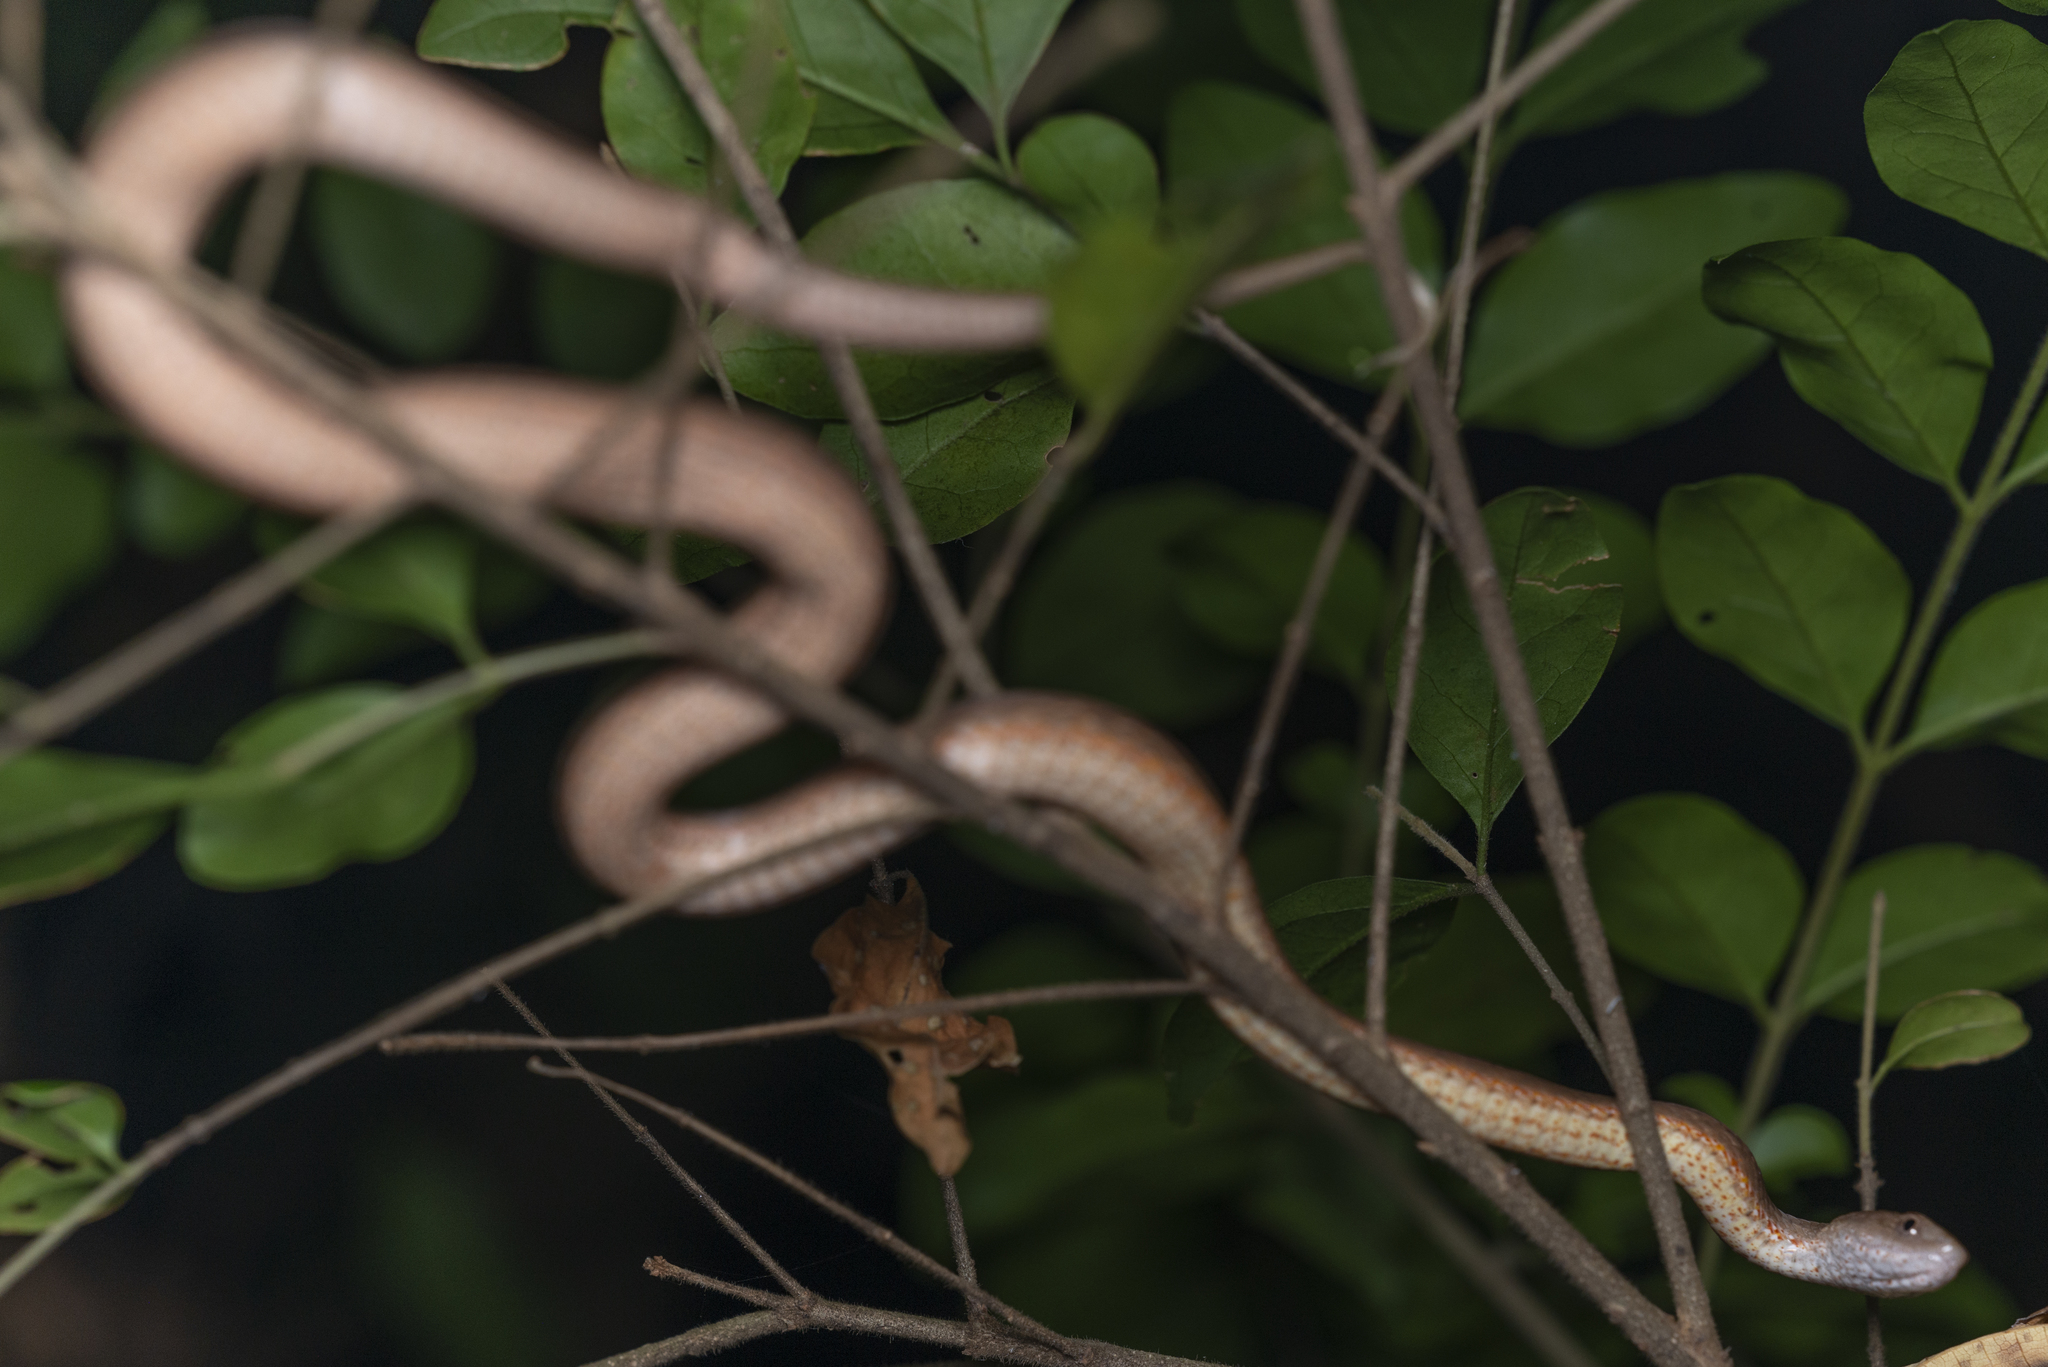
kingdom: Animalia
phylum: Chordata
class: Squamata
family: Pseudaspididae
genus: Psammodynastes
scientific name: Psammodynastes pulverulentus
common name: Common mock viper
